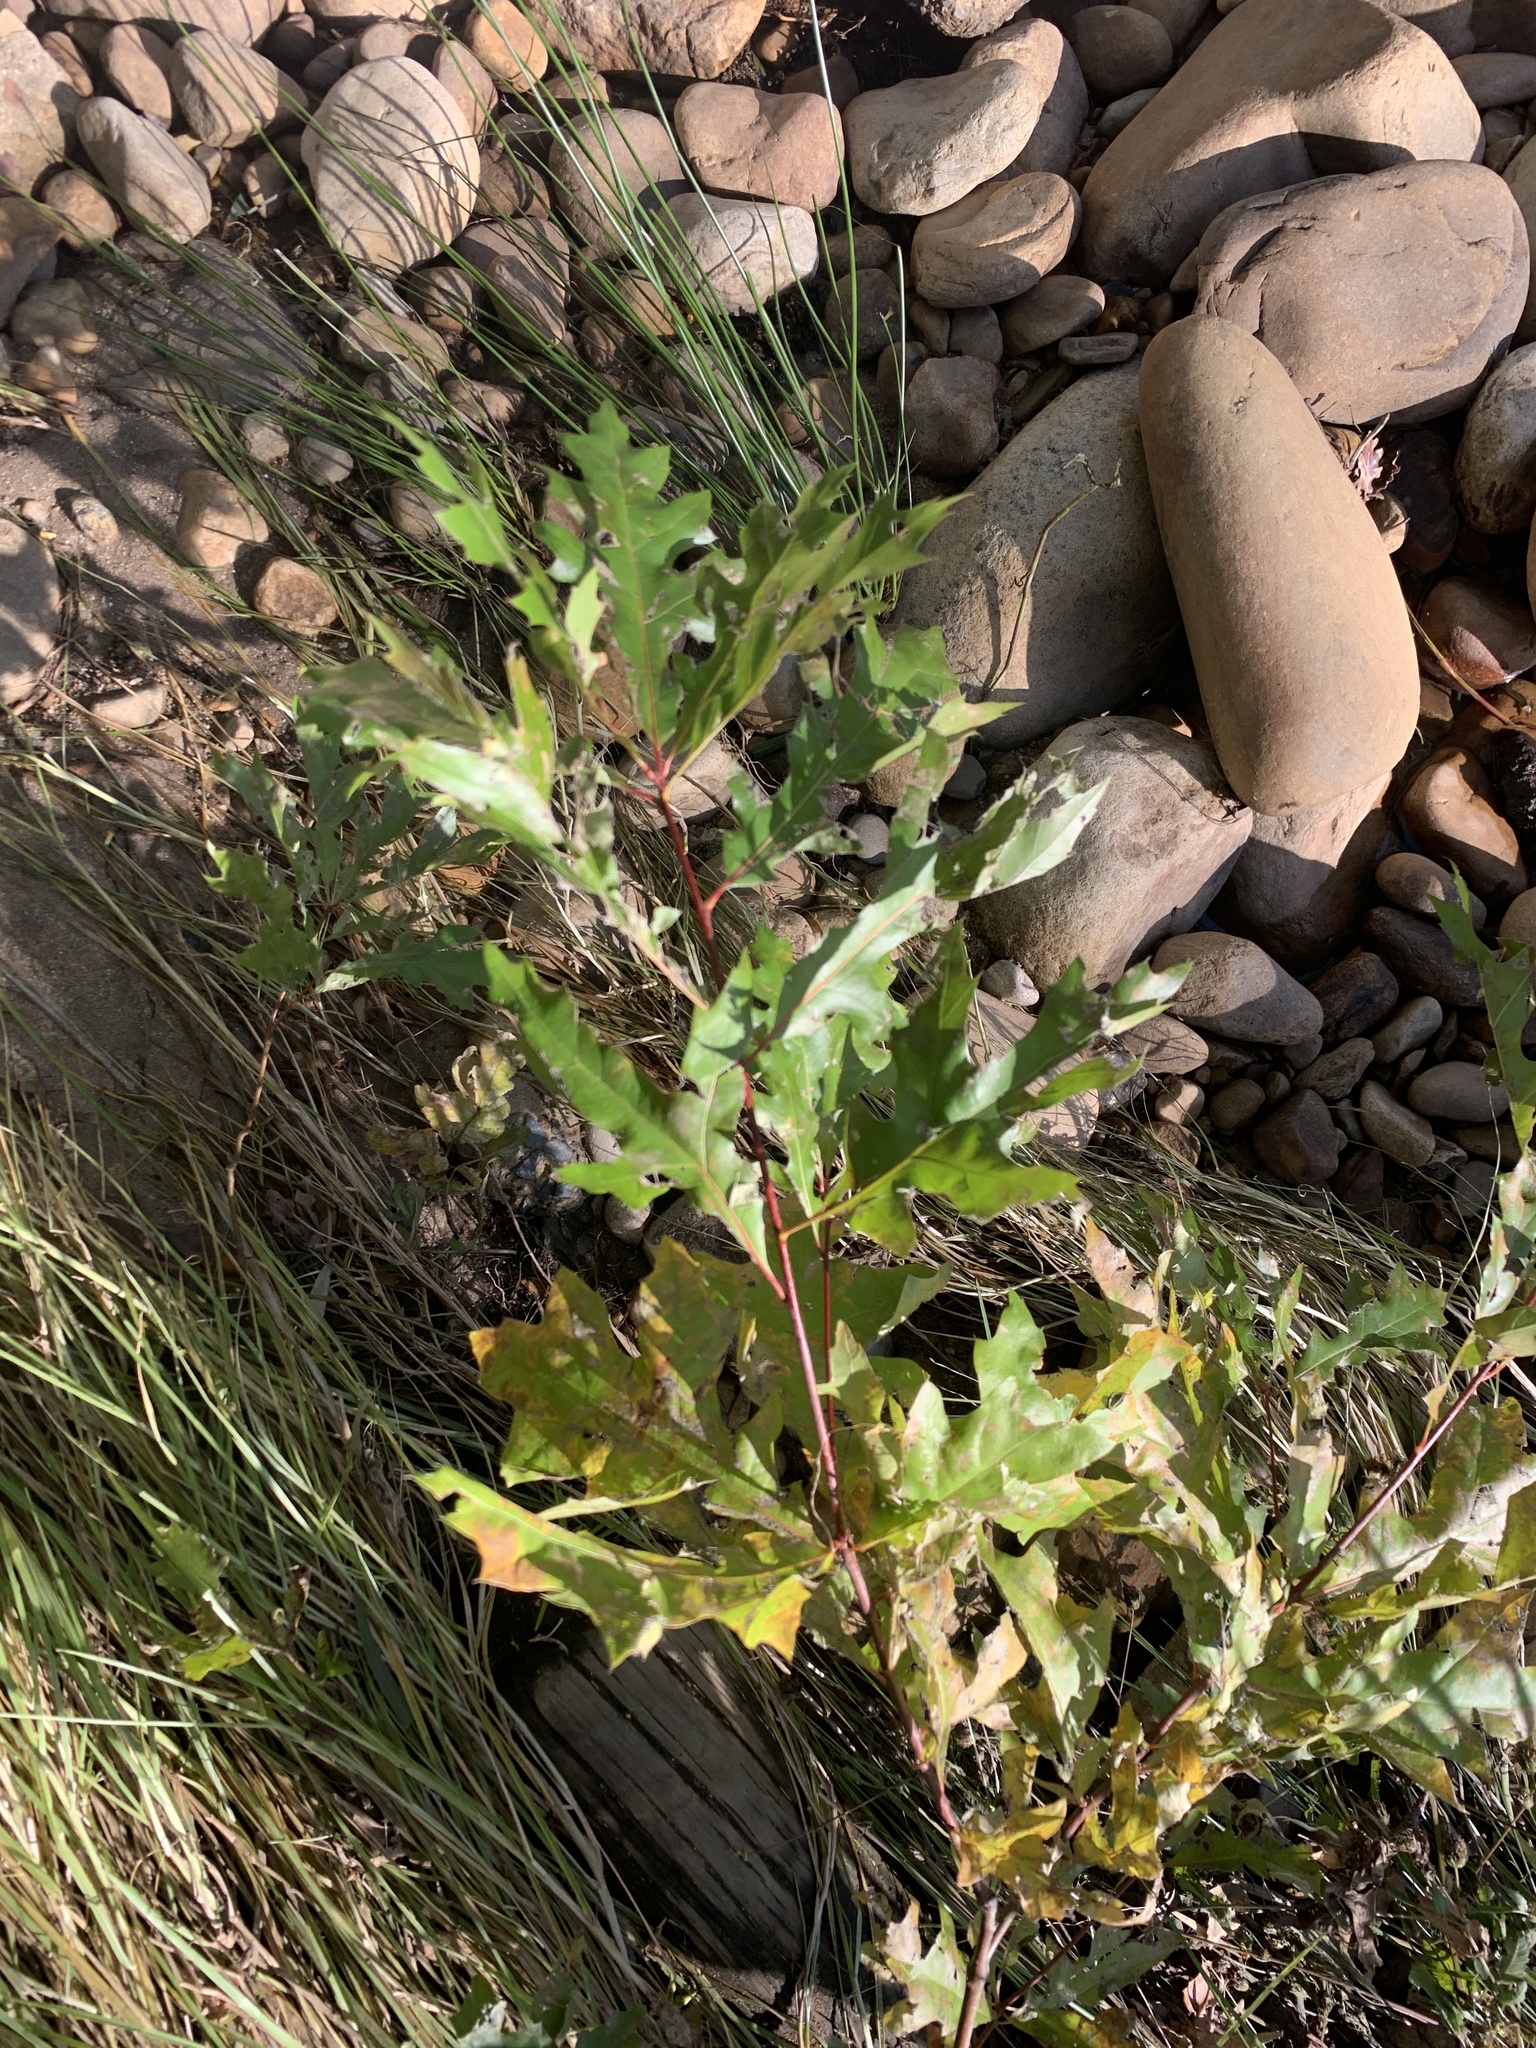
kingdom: Plantae
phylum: Tracheophyta
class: Magnoliopsida
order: Fagales
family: Fagaceae
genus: Quercus
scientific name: Quercus palustris
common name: Pin oak
